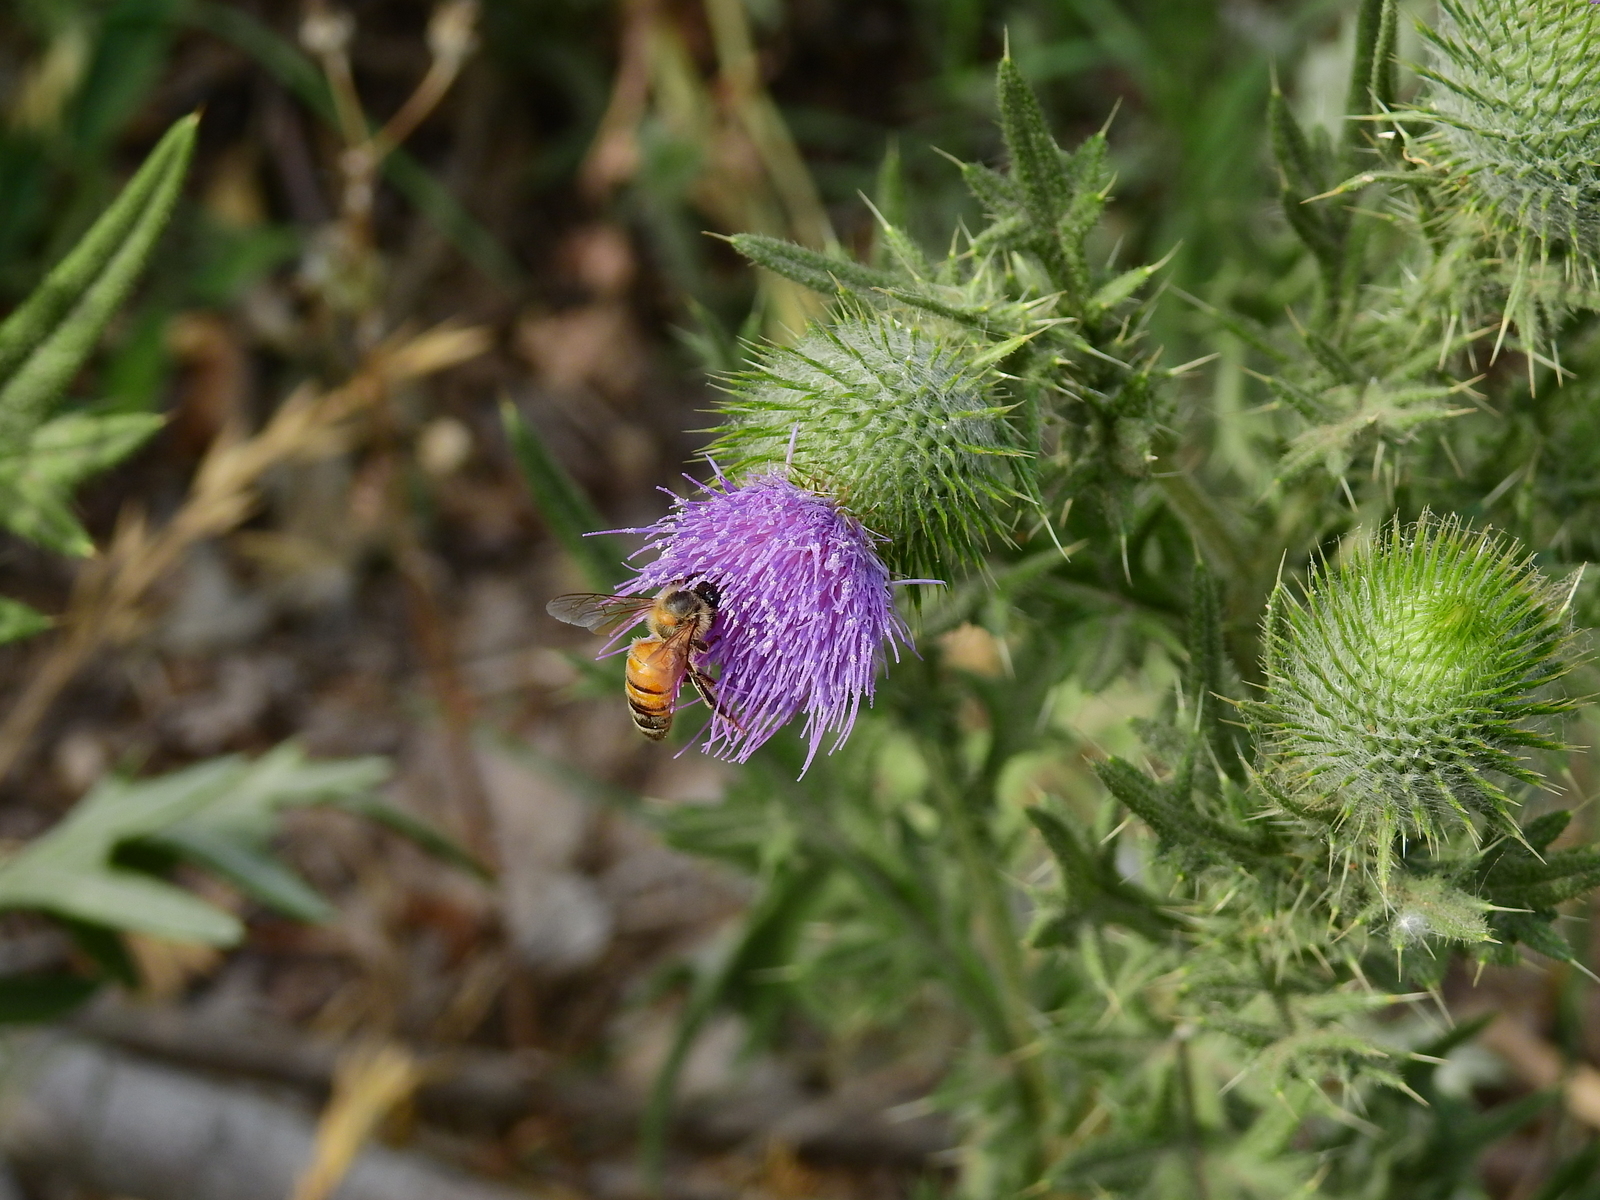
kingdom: Animalia
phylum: Arthropoda
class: Insecta
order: Hymenoptera
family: Apidae
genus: Apis
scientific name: Apis mellifera
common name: Honey bee
